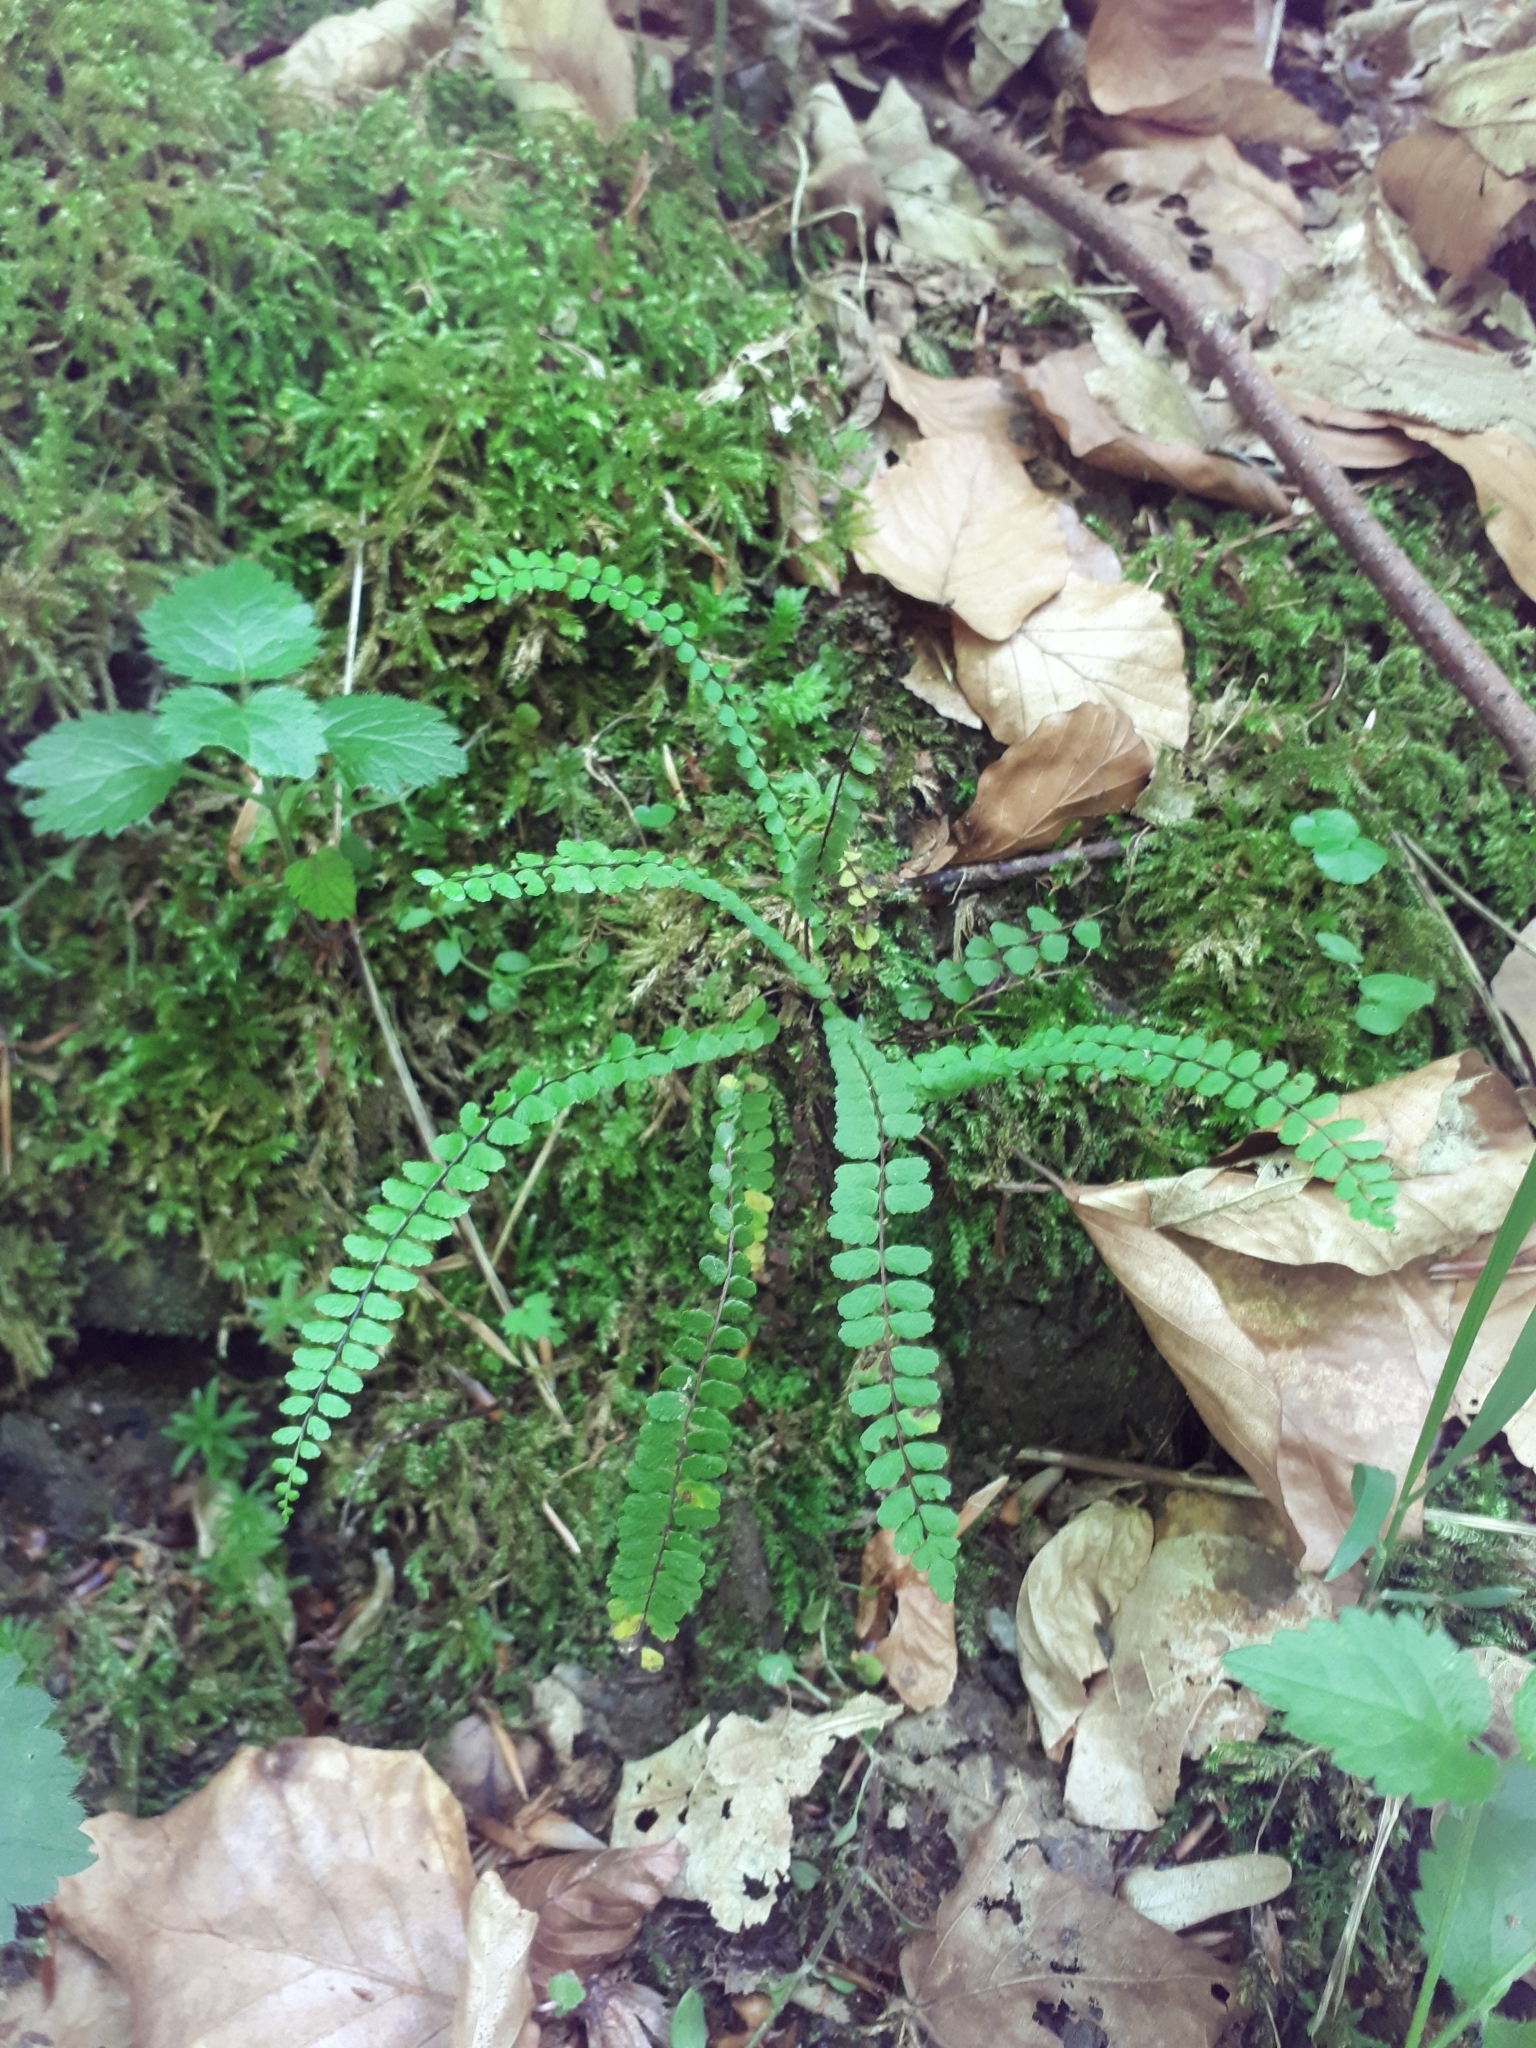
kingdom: Plantae
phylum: Tracheophyta
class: Polypodiopsida
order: Polypodiales
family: Aspleniaceae
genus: Asplenium
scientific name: Asplenium trichomanes
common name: Maidenhair spleenwort
